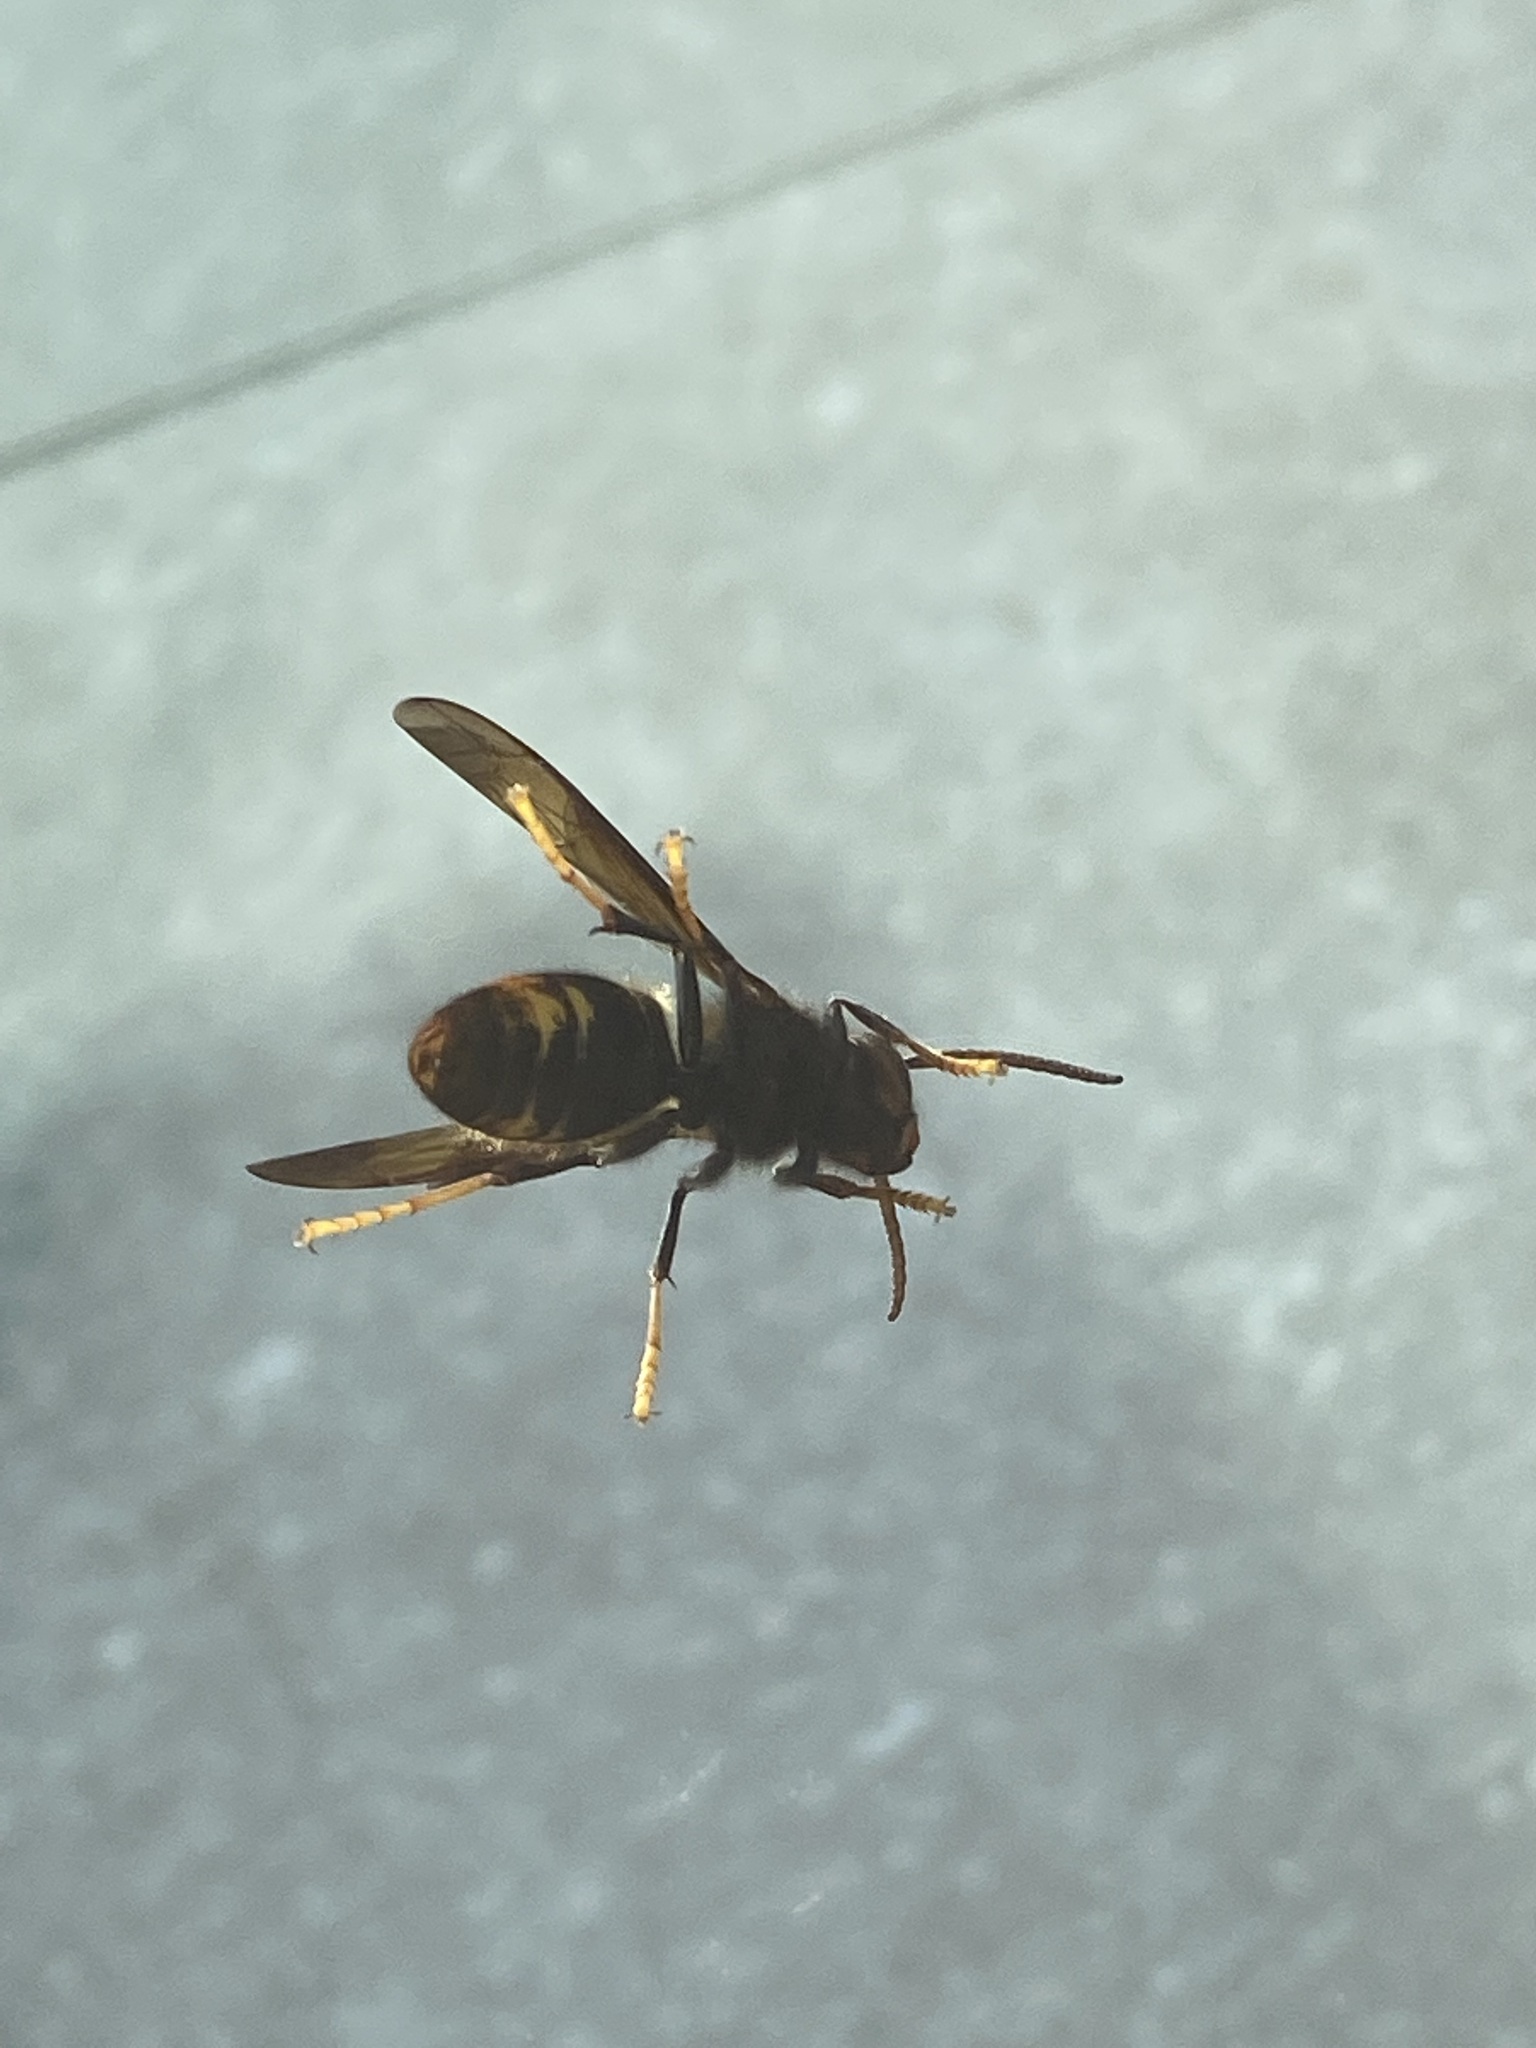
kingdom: Animalia
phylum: Arthropoda
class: Insecta
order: Hymenoptera
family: Vespidae
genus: Vespa
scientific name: Vespa velutina
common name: Asian hornet
